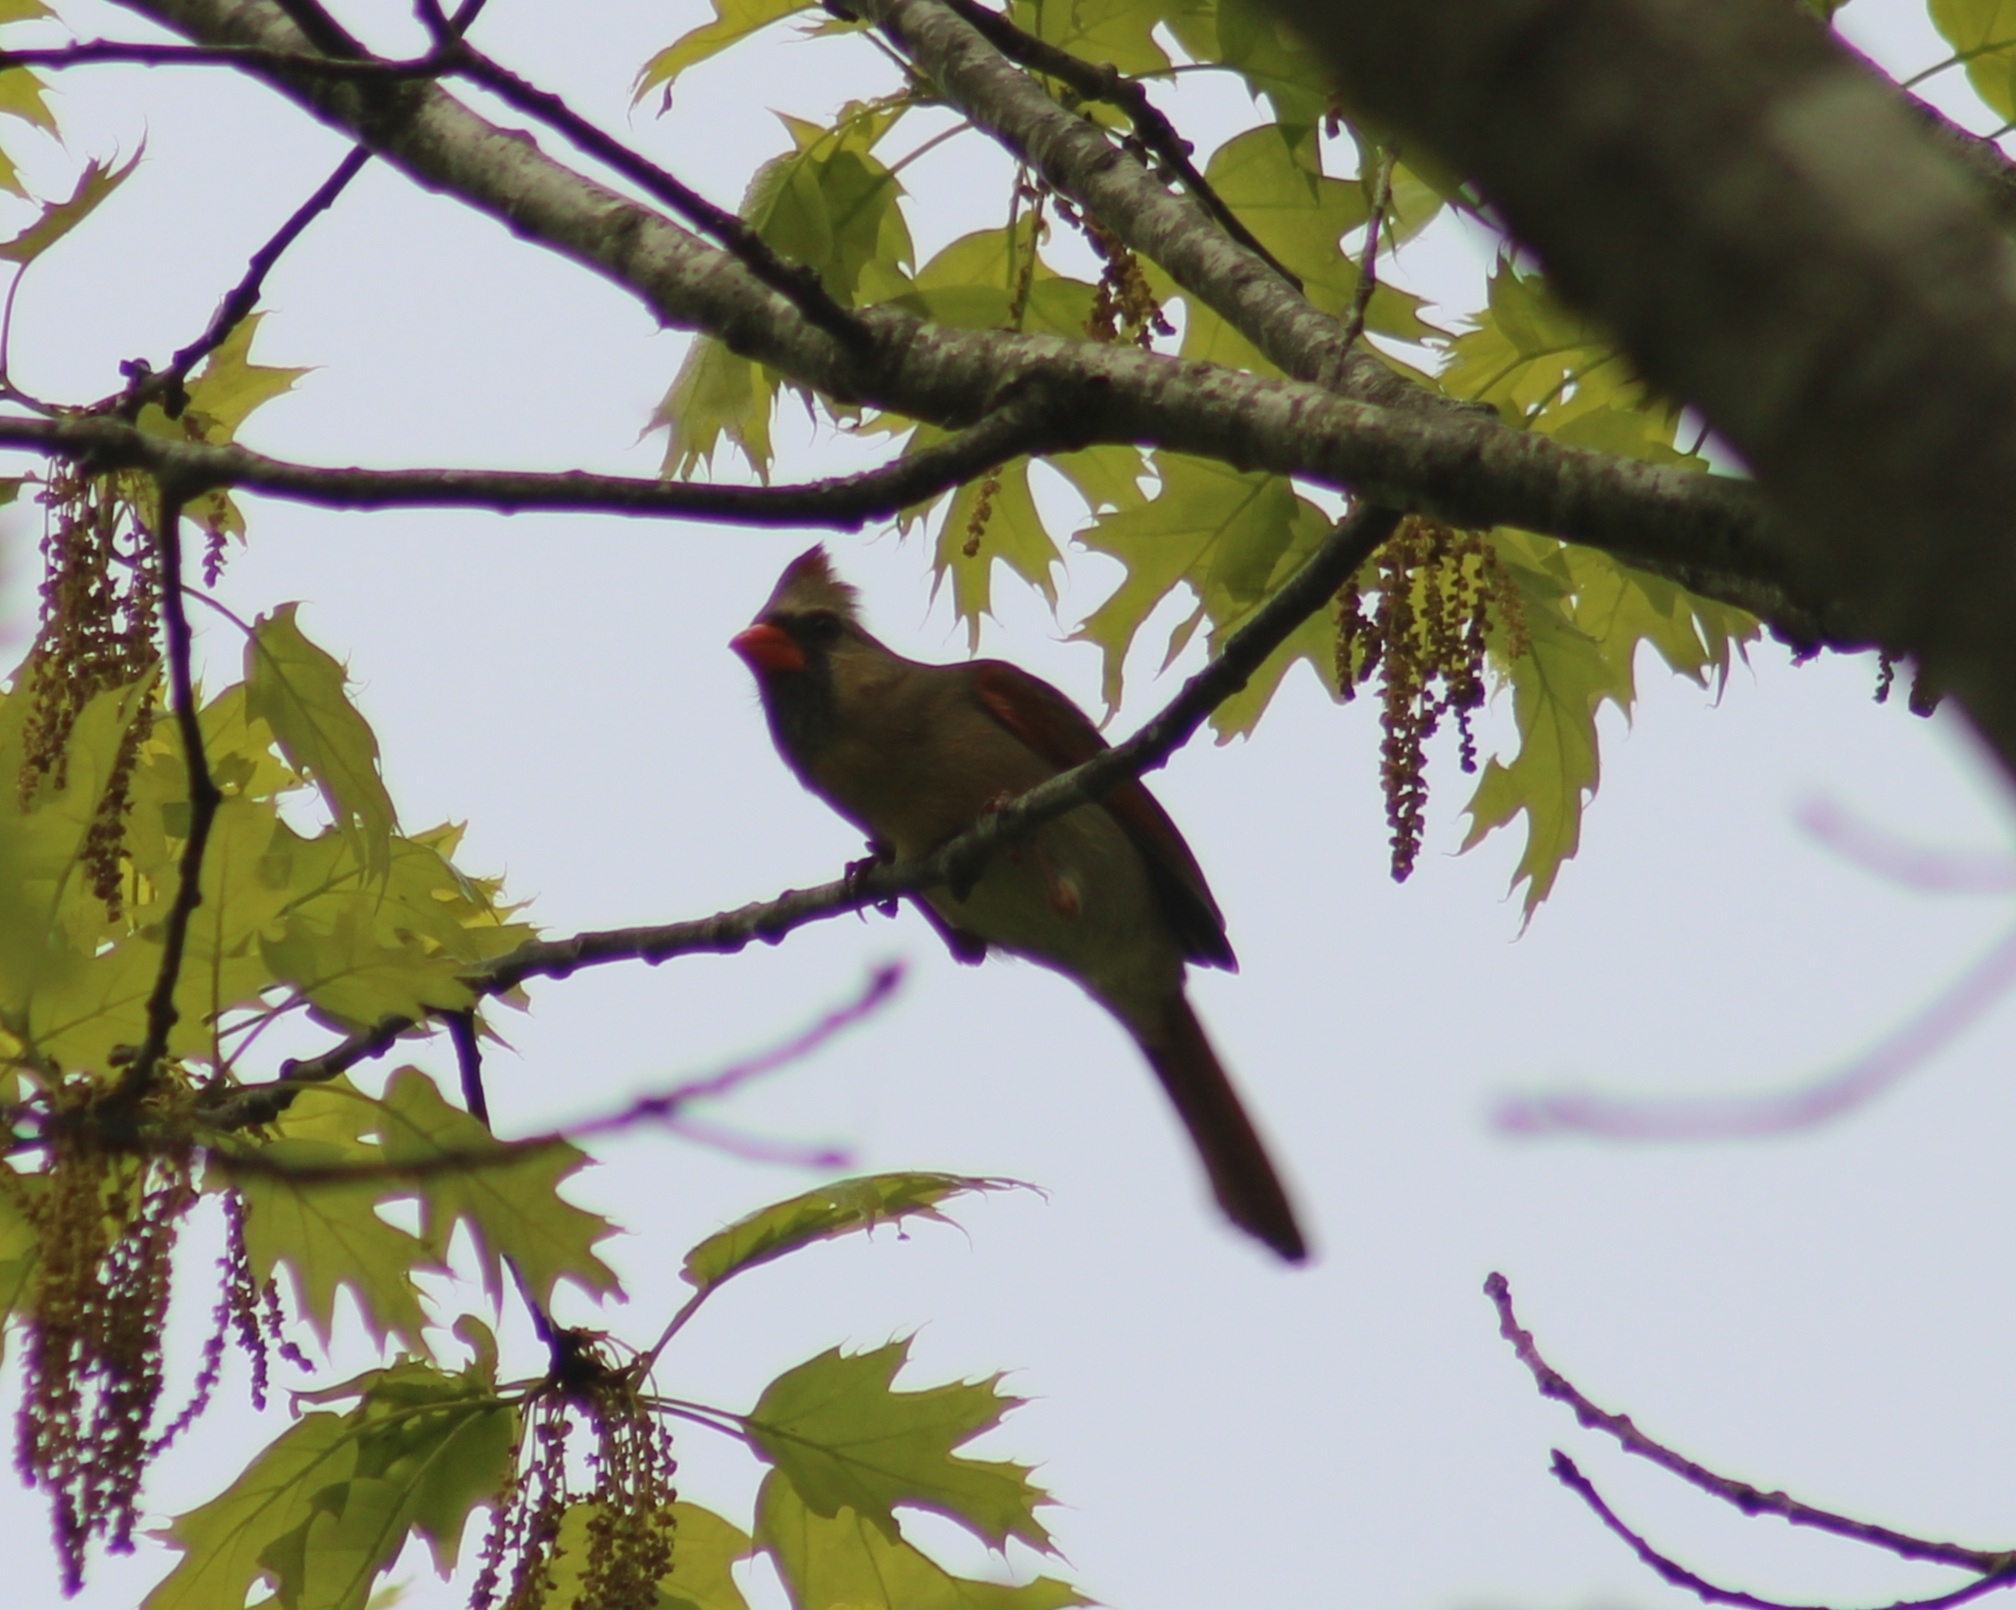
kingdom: Animalia
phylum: Chordata
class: Aves
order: Passeriformes
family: Cardinalidae
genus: Cardinalis
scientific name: Cardinalis cardinalis
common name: Northern cardinal
